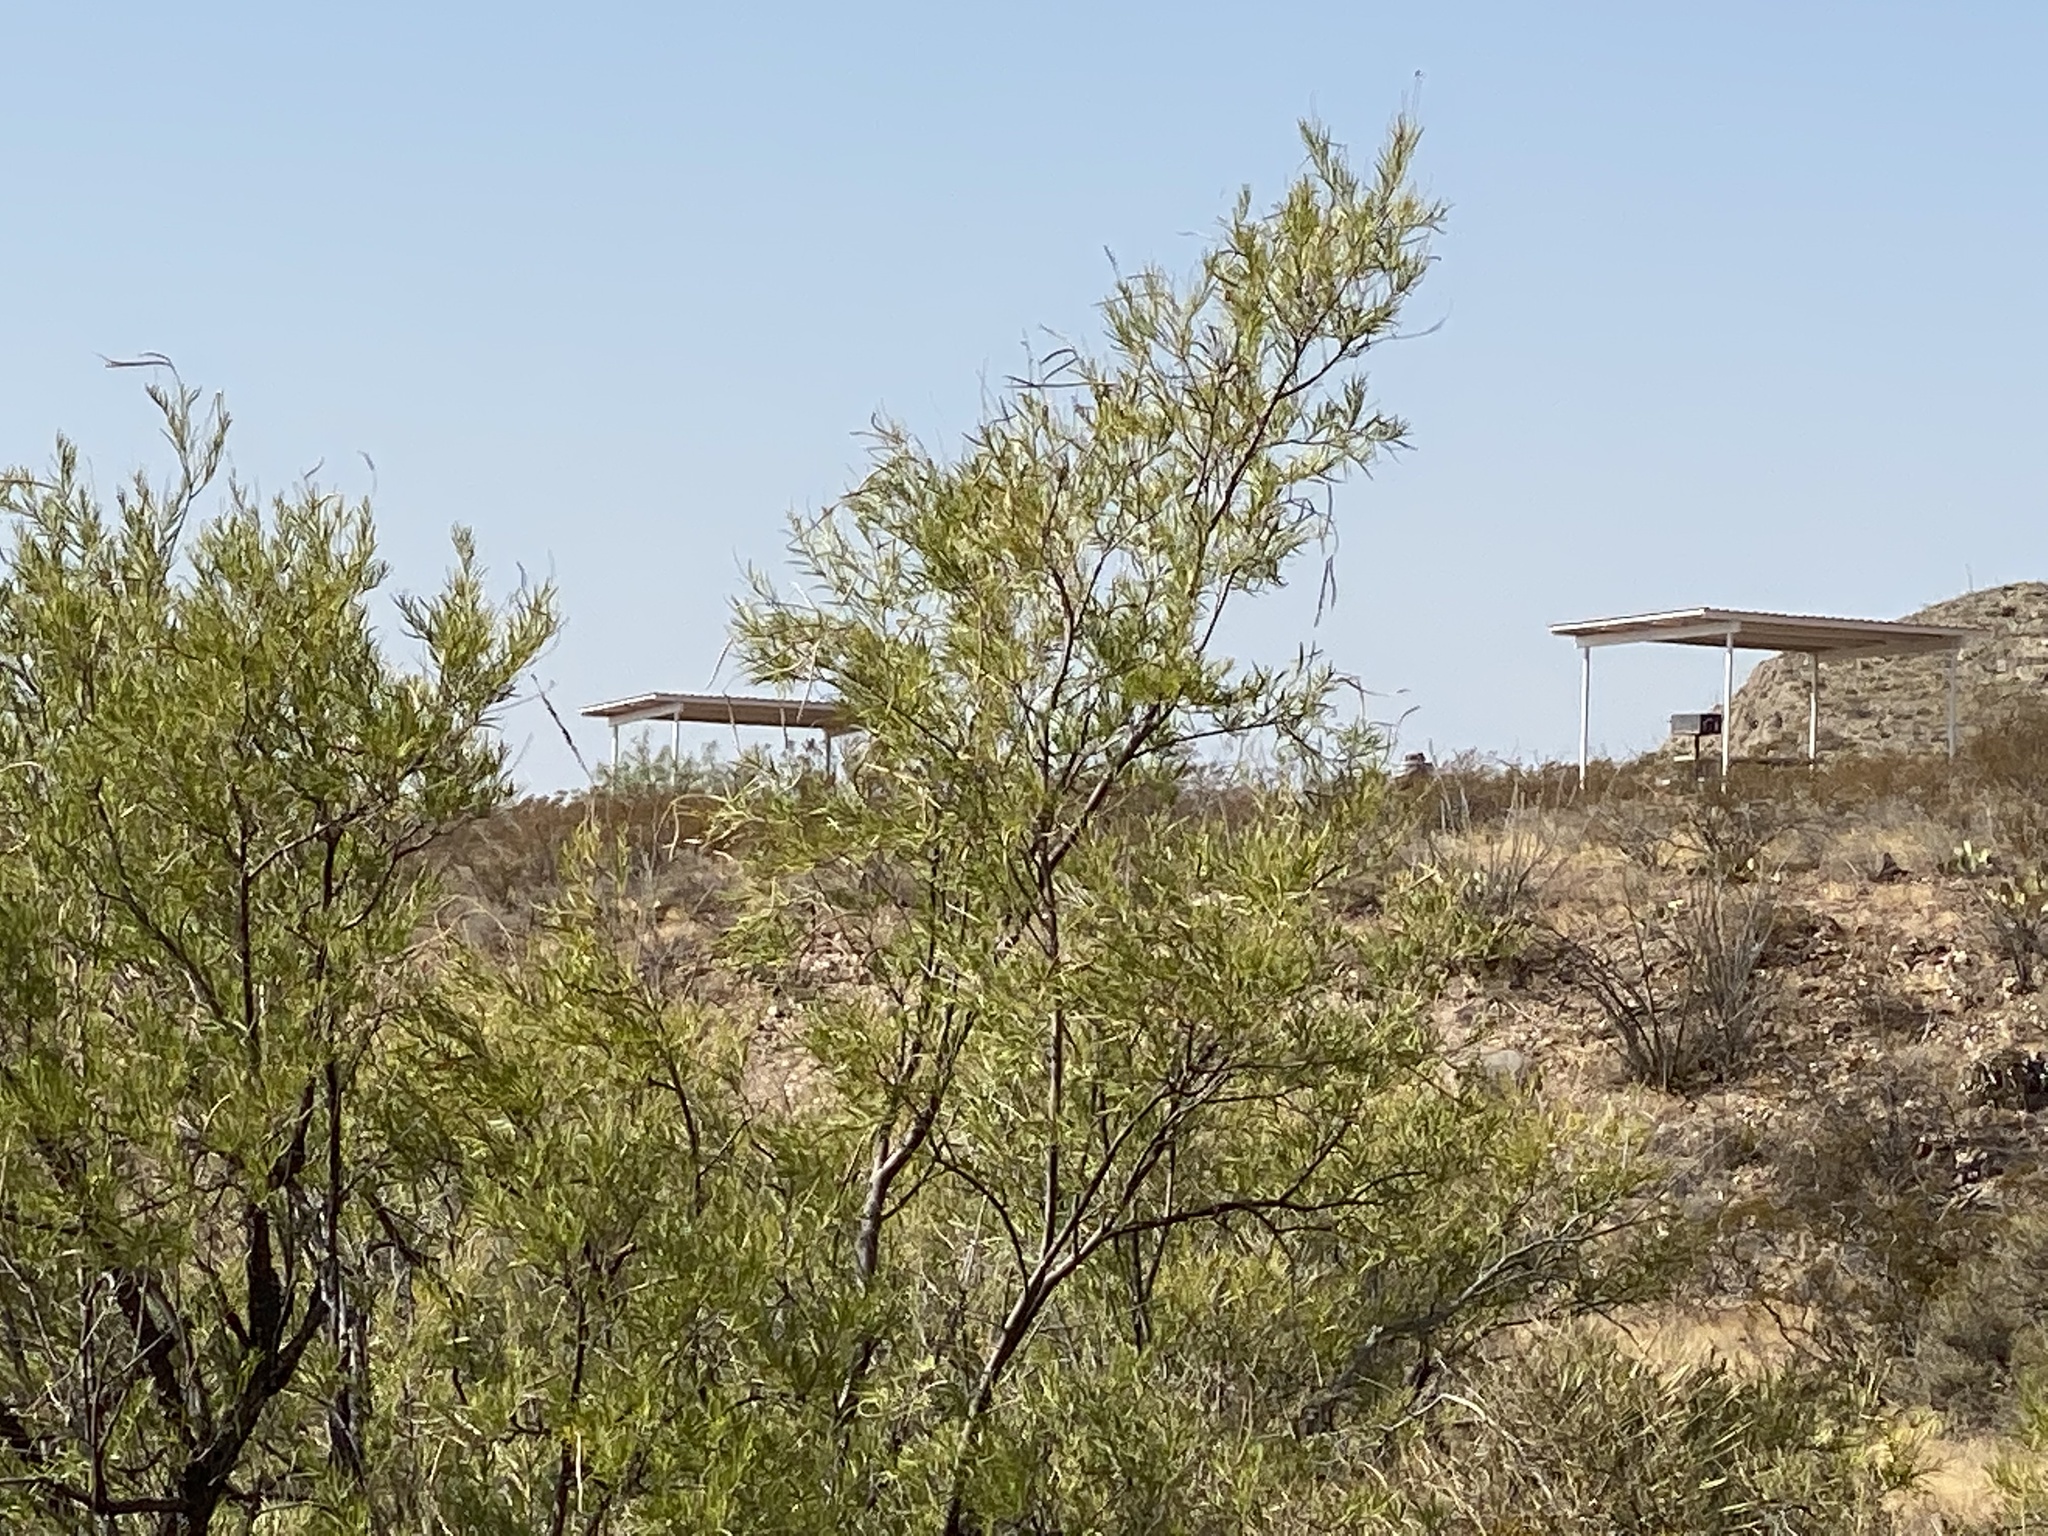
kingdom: Plantae
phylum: Tracheophyta
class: Magnoliopsida
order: Lamiales
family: Bignoniaceae
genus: Chilopsis
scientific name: Chilopsis linearis
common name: Desert-willow
